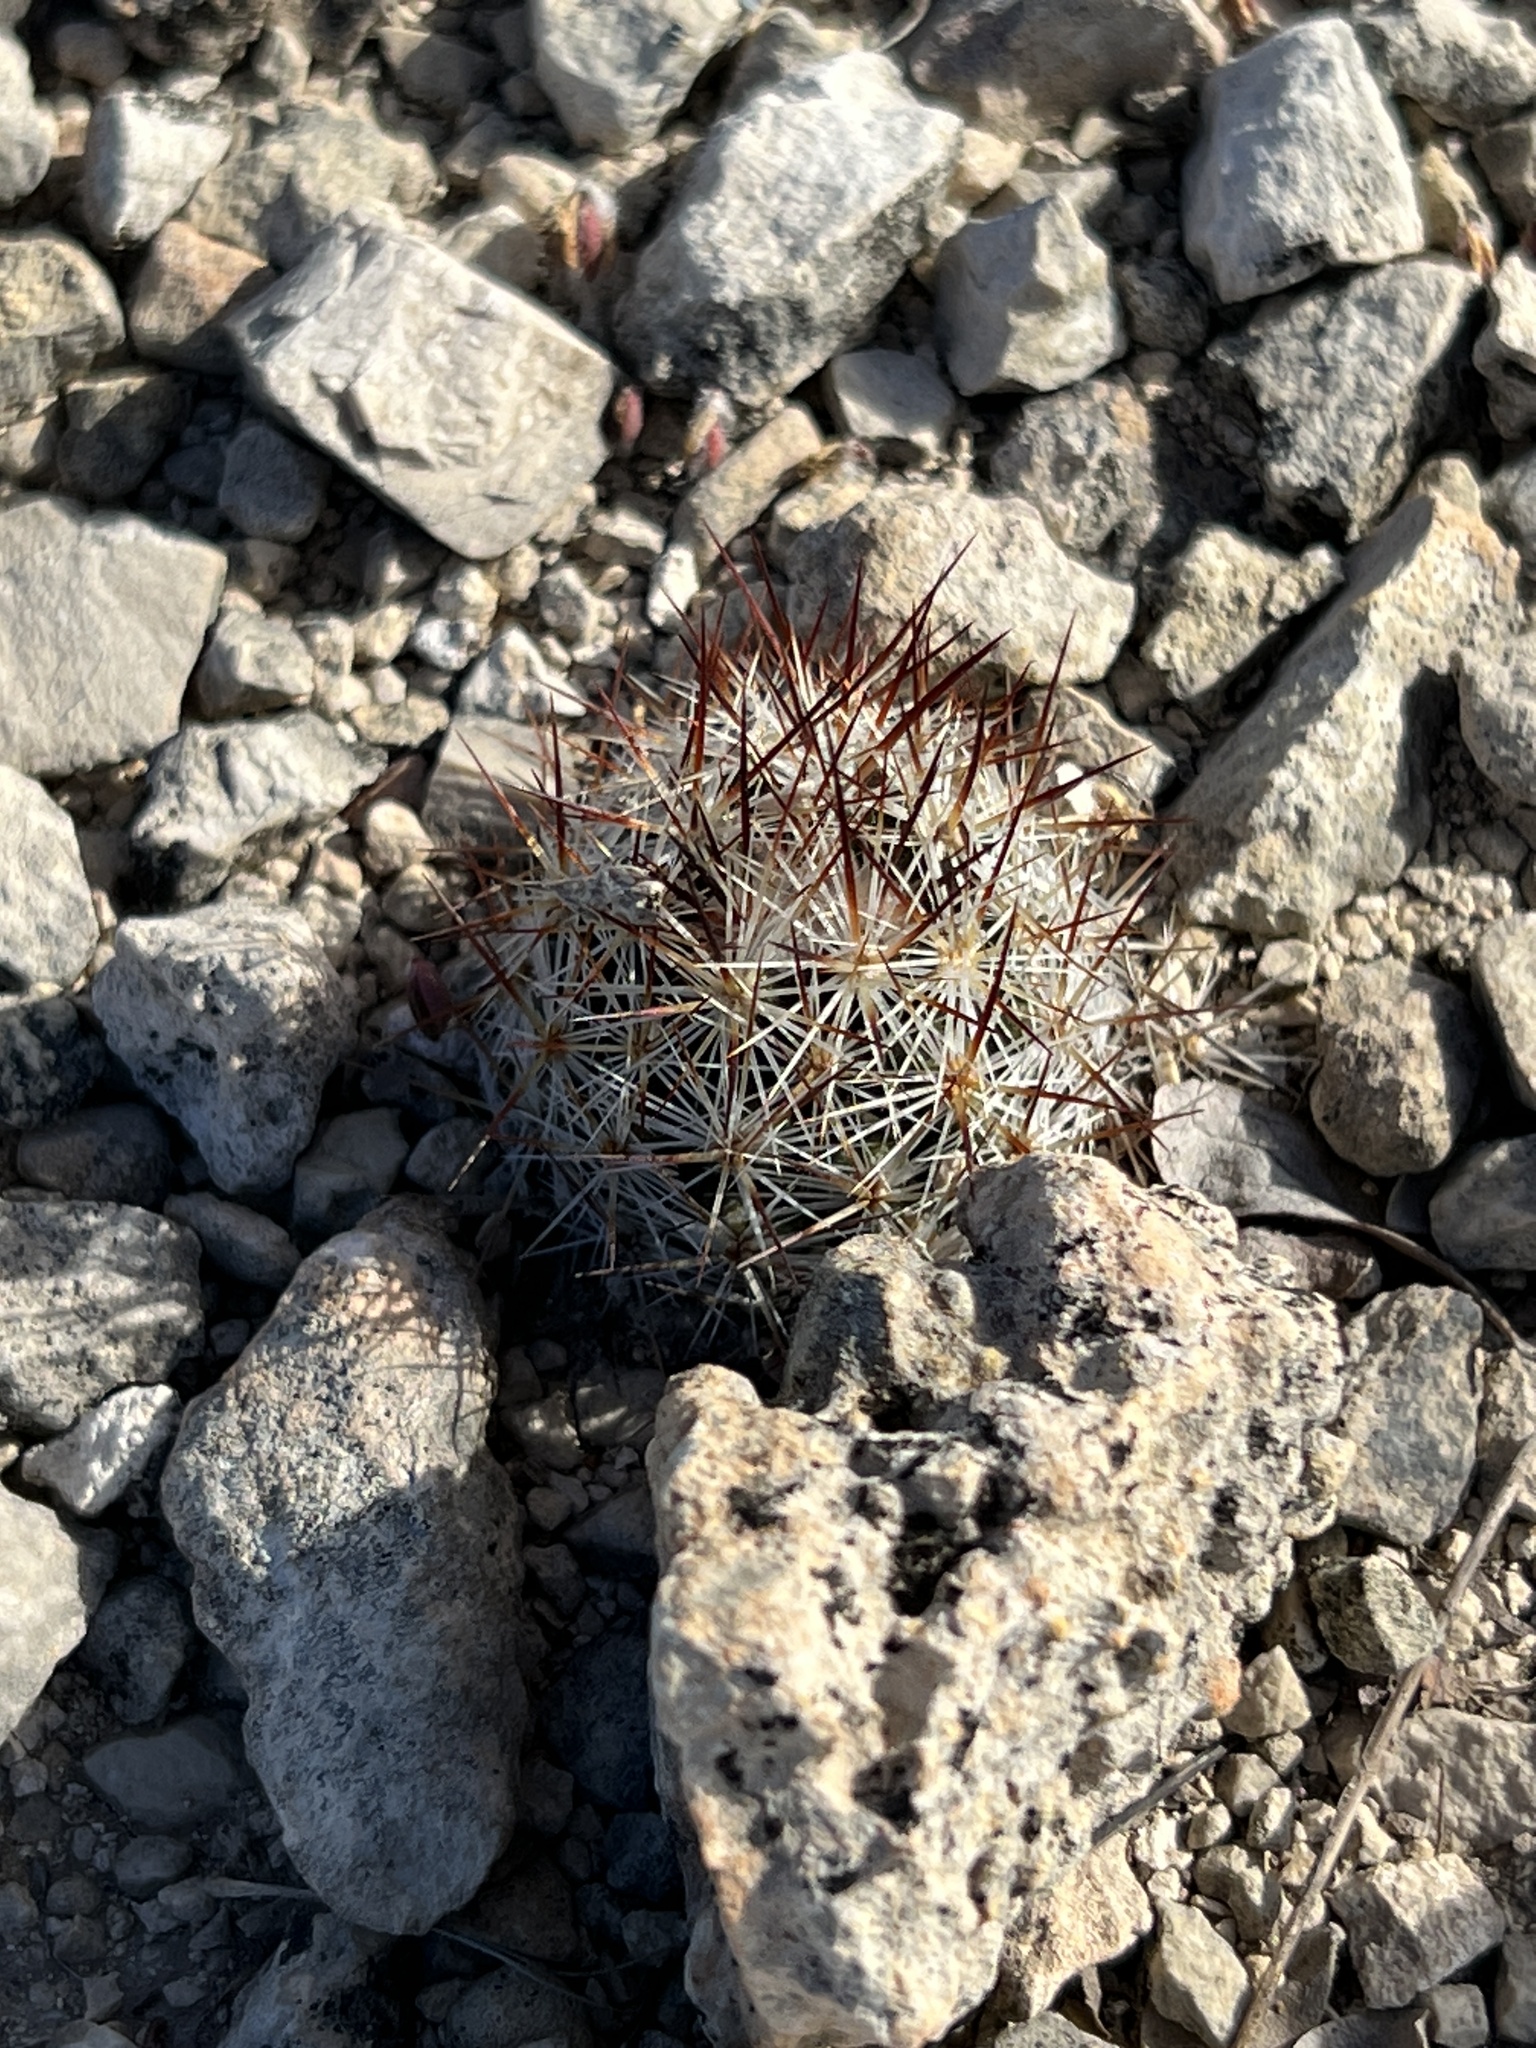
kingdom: Plantae
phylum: Tracheophyta
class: Magnoliopsida
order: Caryophyllales
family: Cactaceae
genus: Pelecyphora
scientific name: Pelecyphora emskoetteriana
